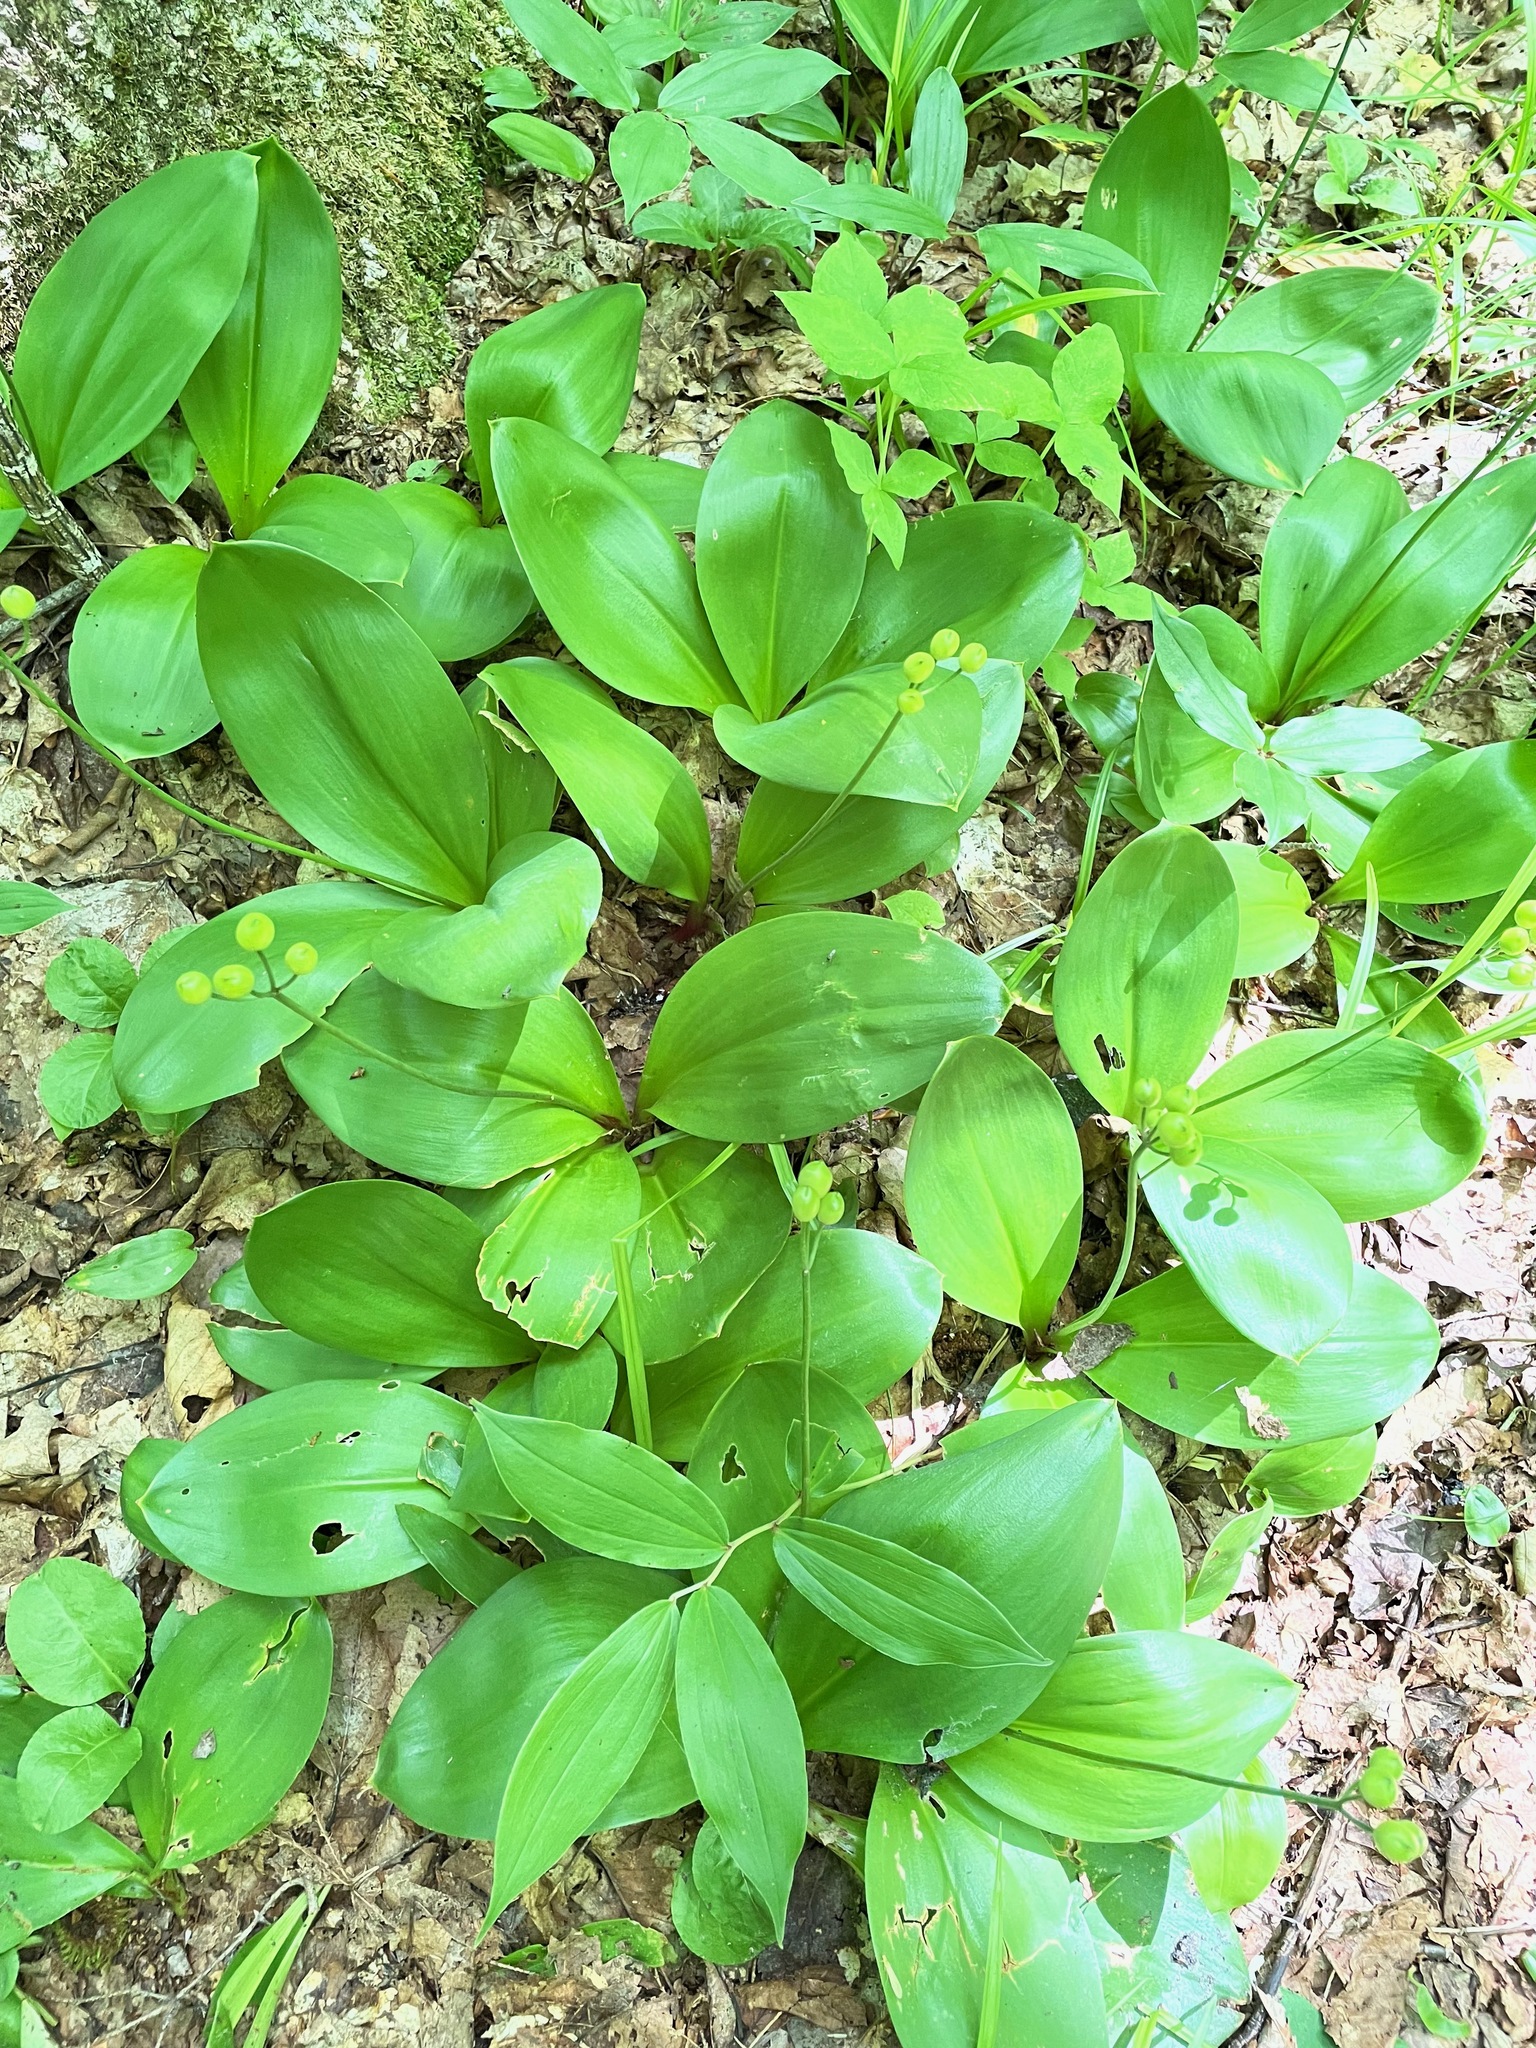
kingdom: Plantae
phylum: Tracheophyta
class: Liliopsida
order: Liliales
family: Liliaceae
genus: Clintonia
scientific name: Clintonia borealis
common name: Yellow clintonia
